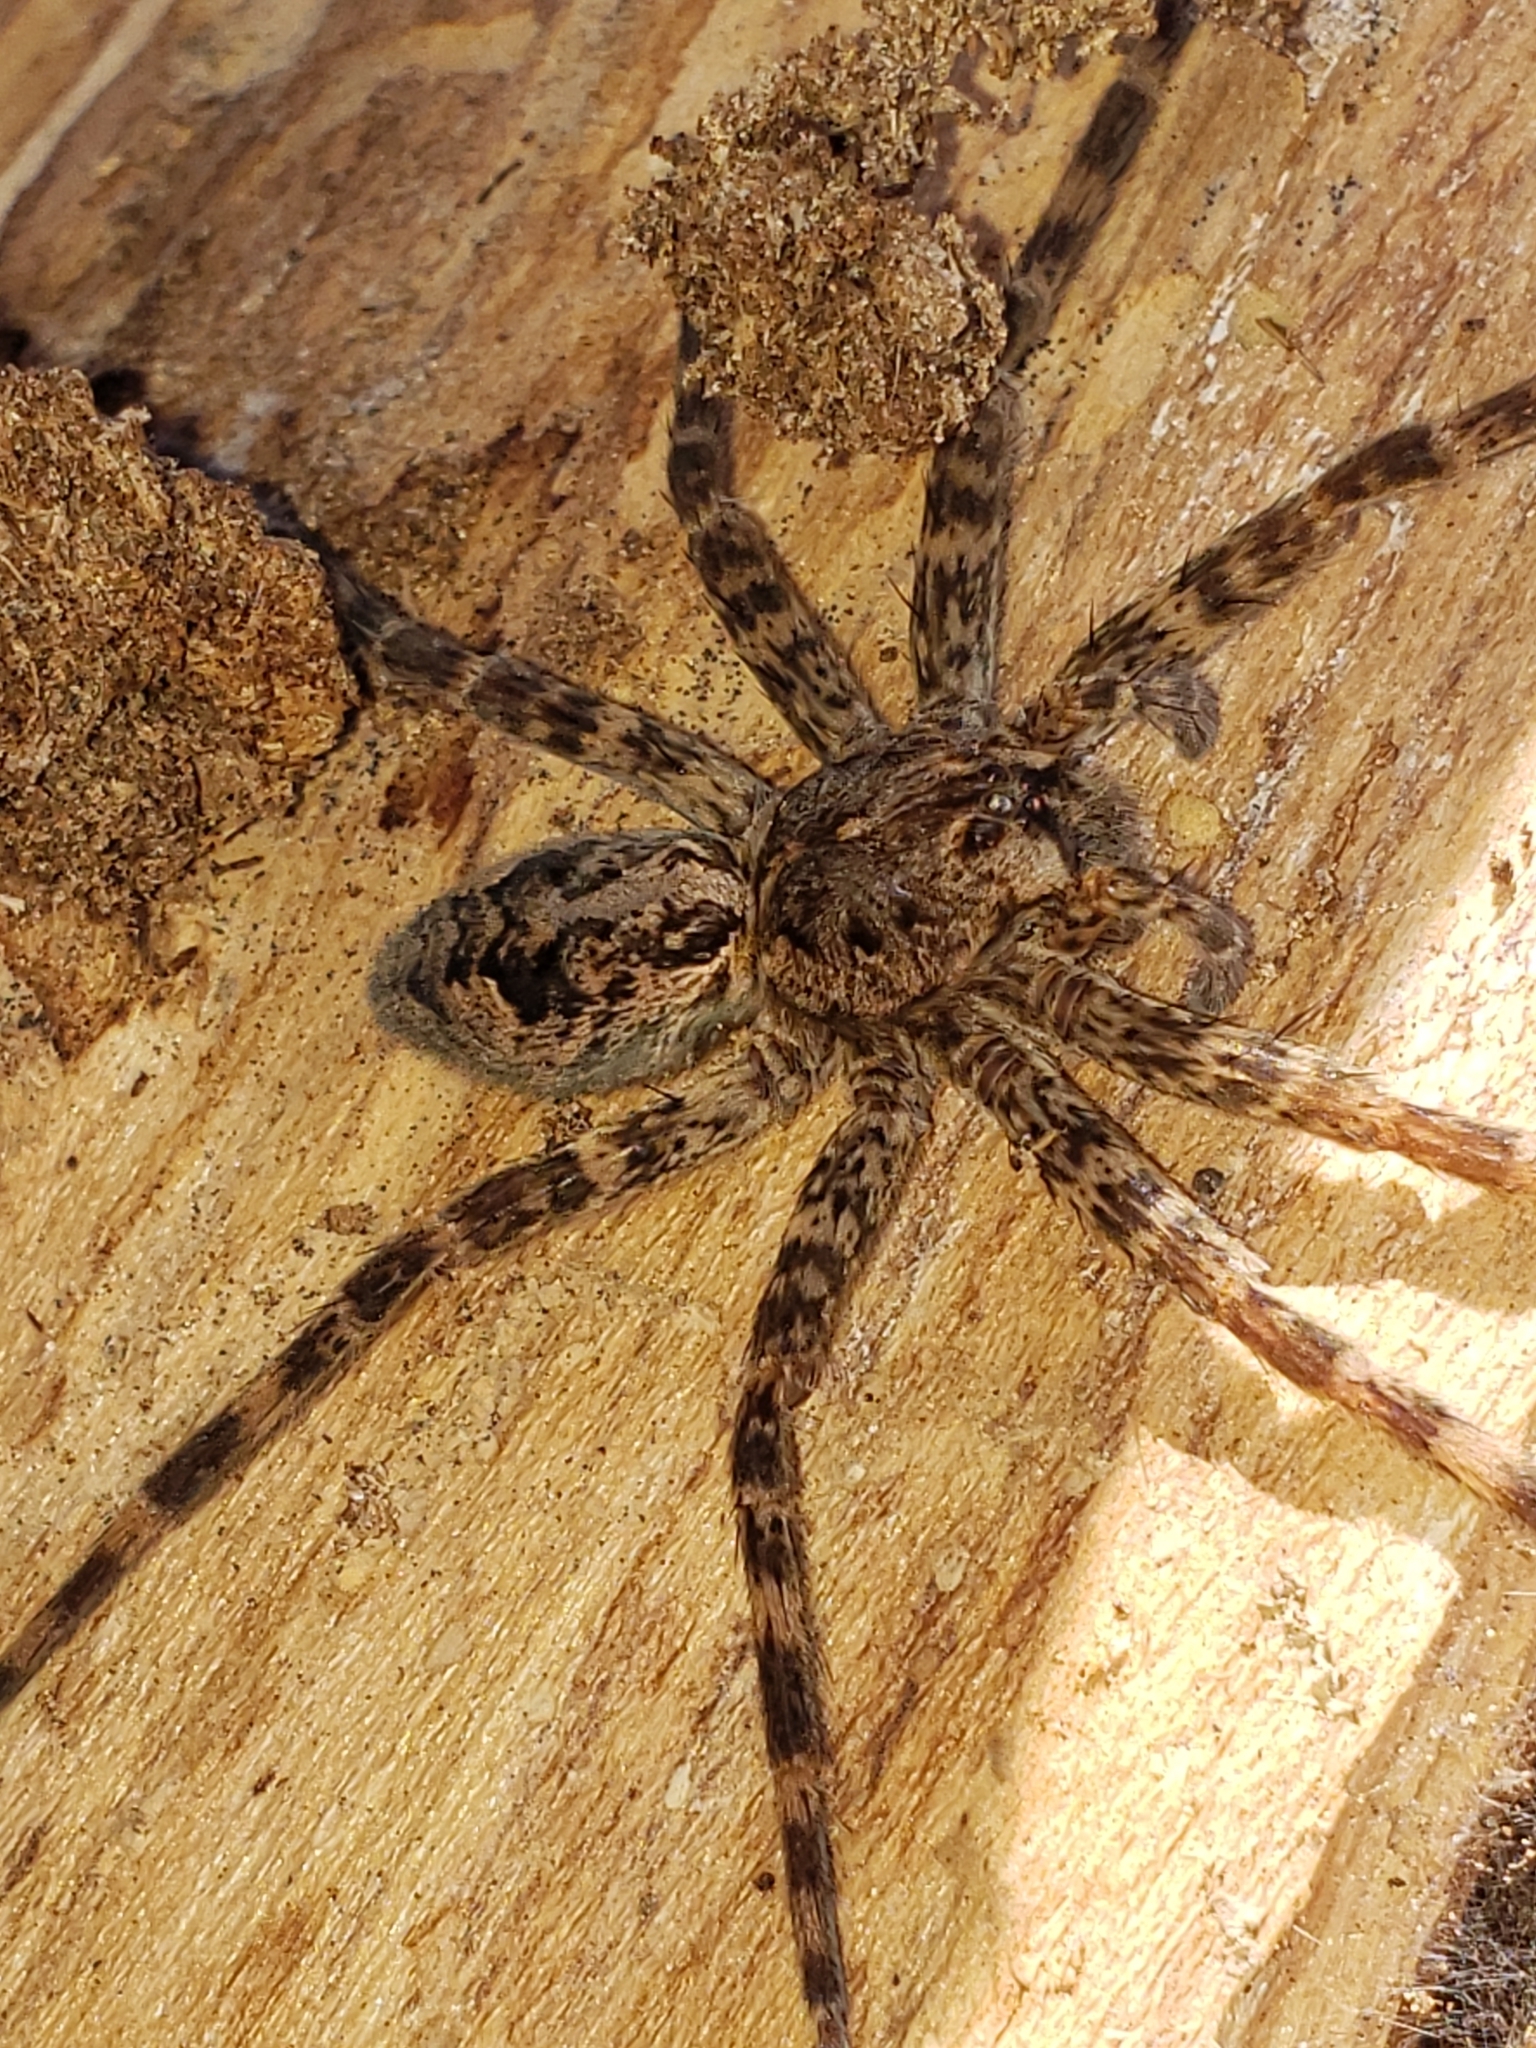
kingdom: Animalia
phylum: Arthropoda
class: Arachnida
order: Araneae
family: Pisauridae
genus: Dolomedes
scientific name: Dolomedes tenebrosus
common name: Dark fishing spider
